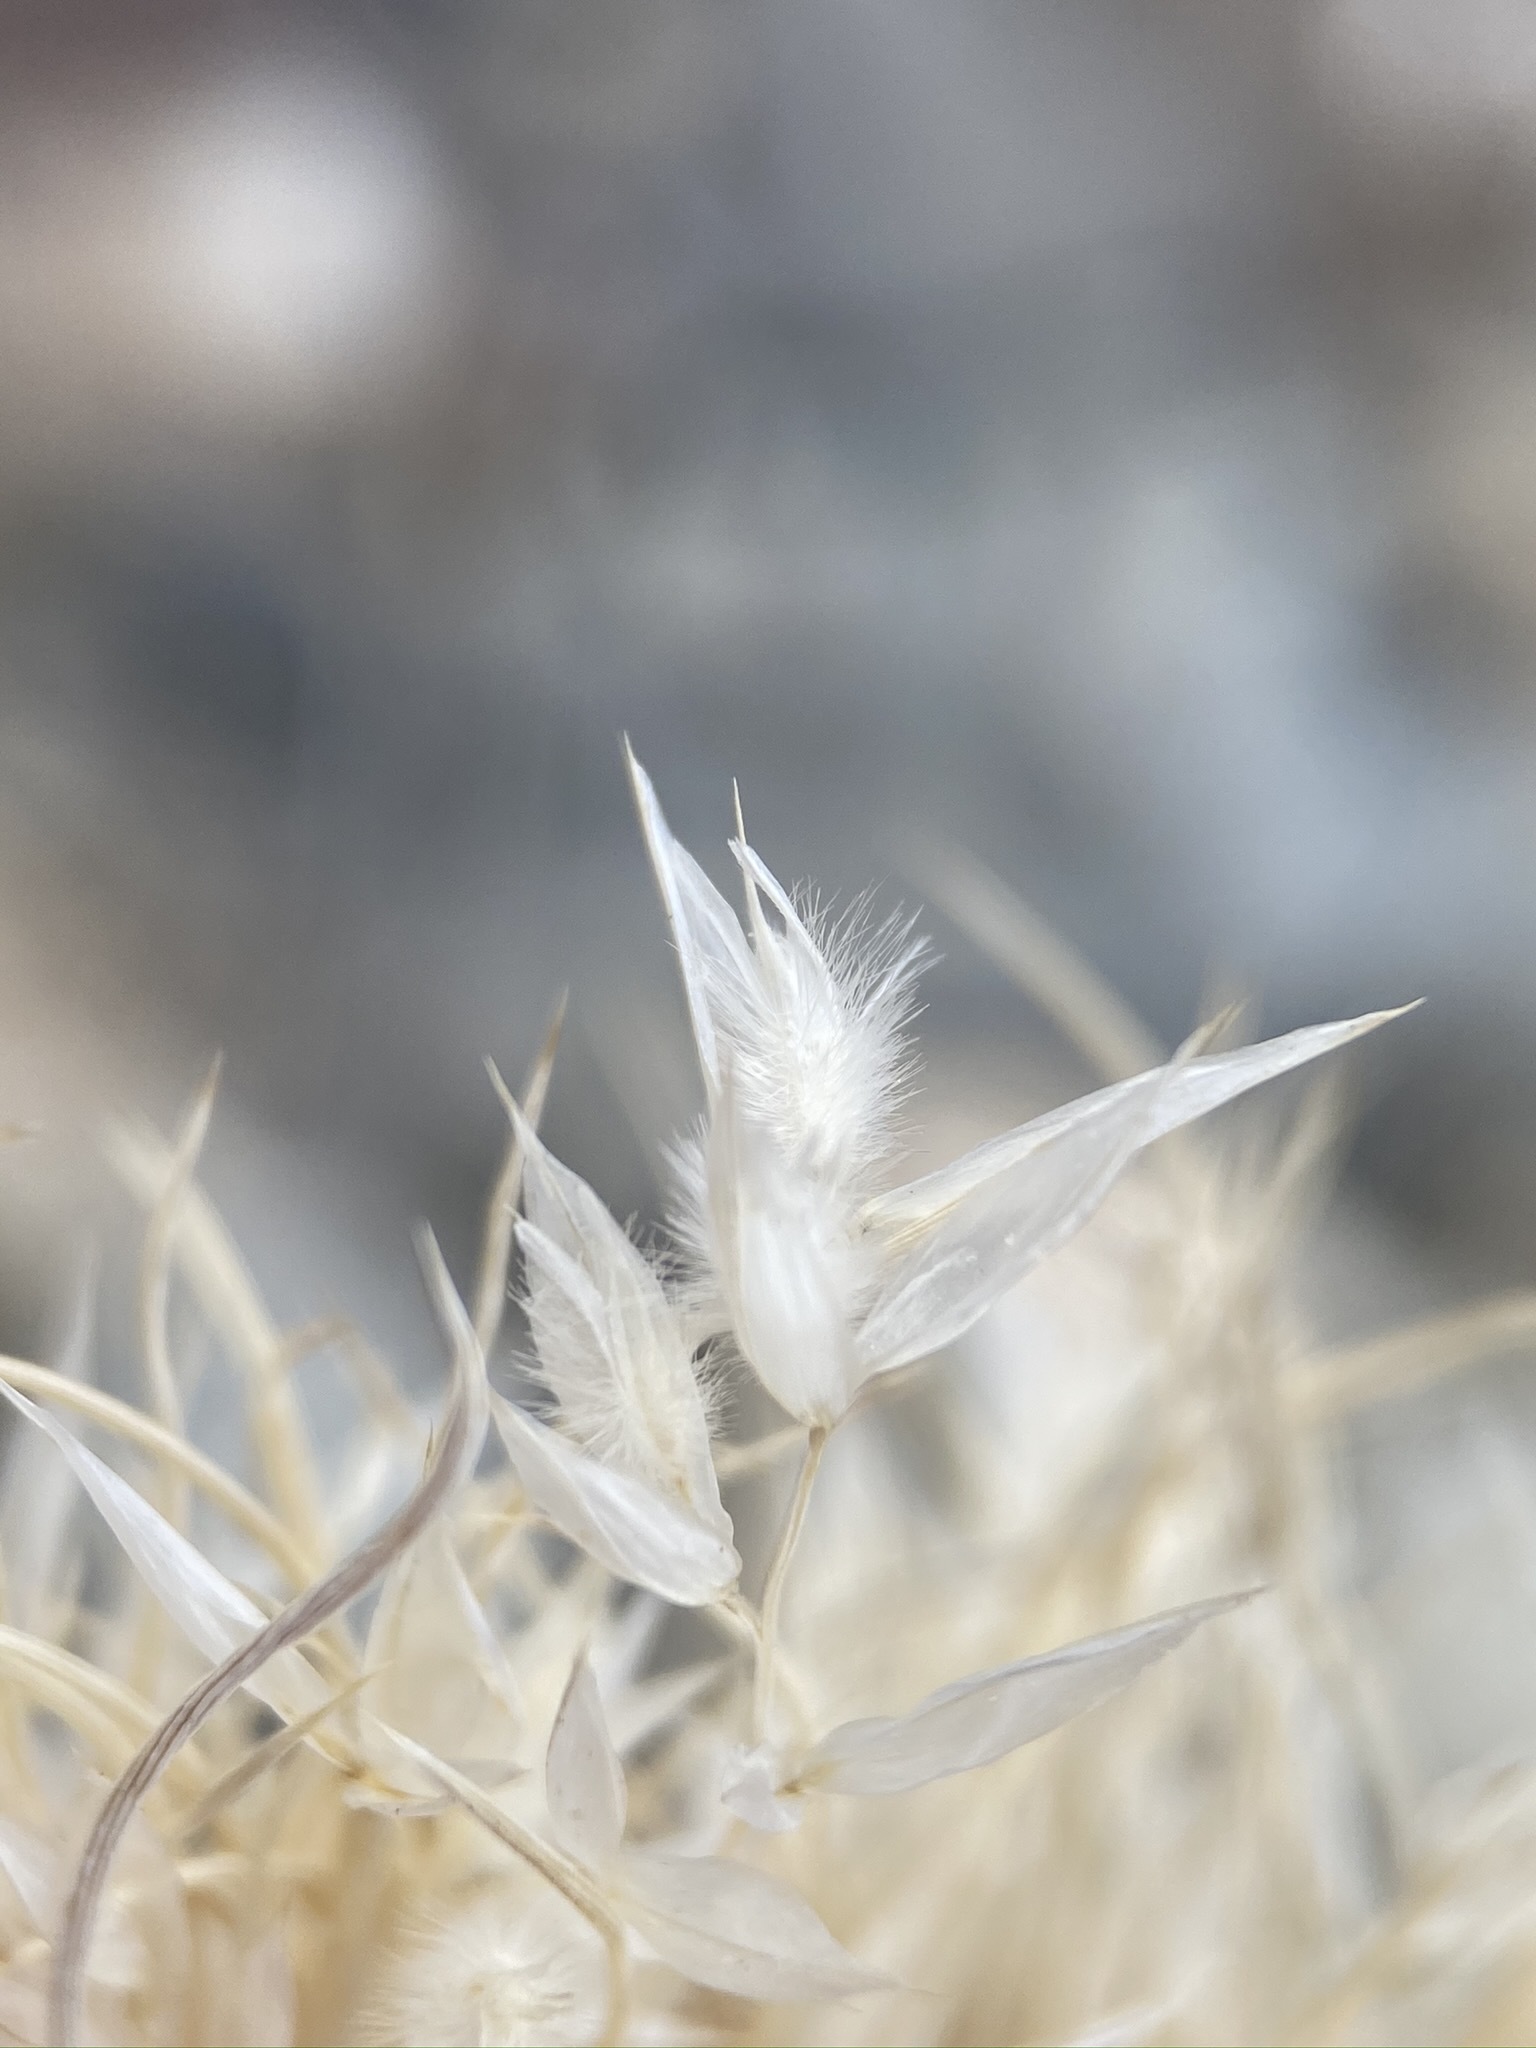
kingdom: Plantae
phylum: Tracheophyta
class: Liliopsida
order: Poales
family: Poaceae
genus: Blepharidachne
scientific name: Blepharidachne kingii
